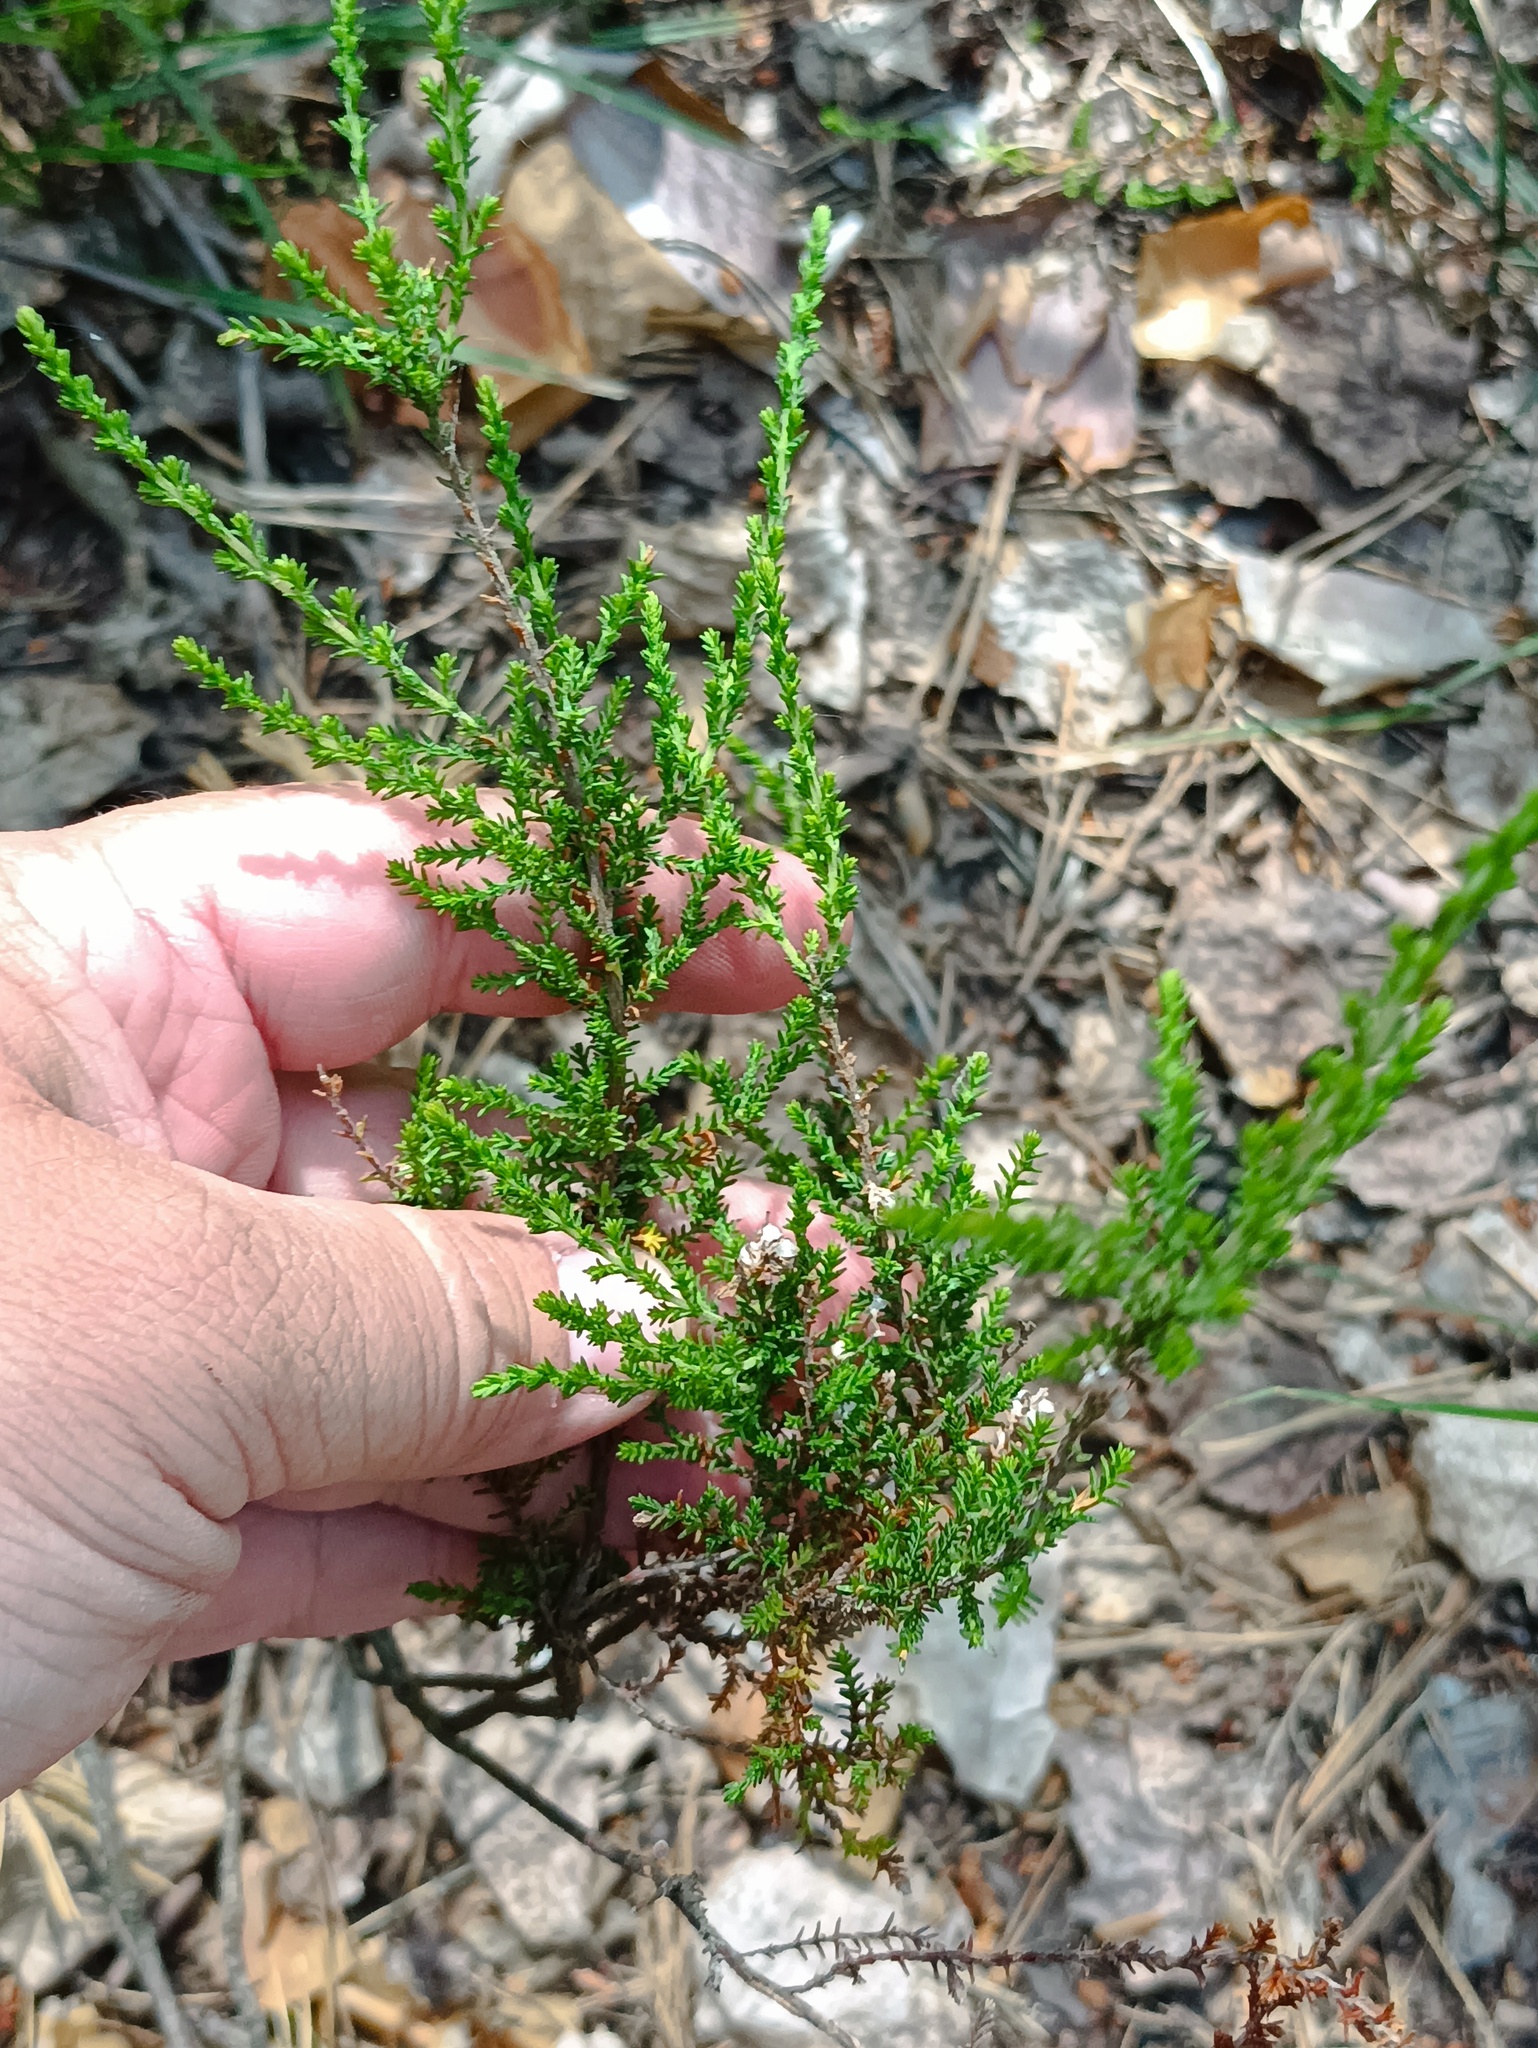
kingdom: Plantae
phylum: Tracheophyta
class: Magnoliopsida
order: Ericales
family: Ericaceae
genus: Calluna
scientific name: Calluna vulgaris
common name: Heather
